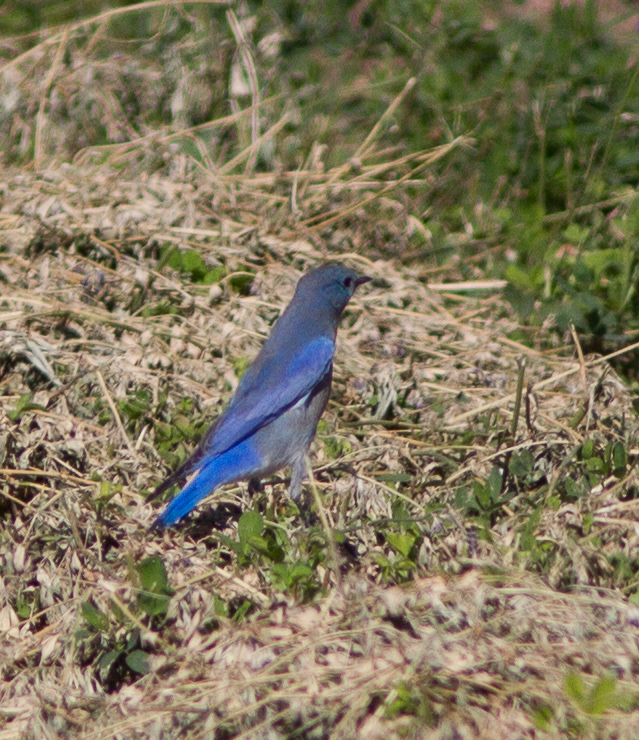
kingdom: Animalia
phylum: Chordata
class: Aves
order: Passeriformes
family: Turdidae
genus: Sialia
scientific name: Sialia currucoides
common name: Mountain bluebird
